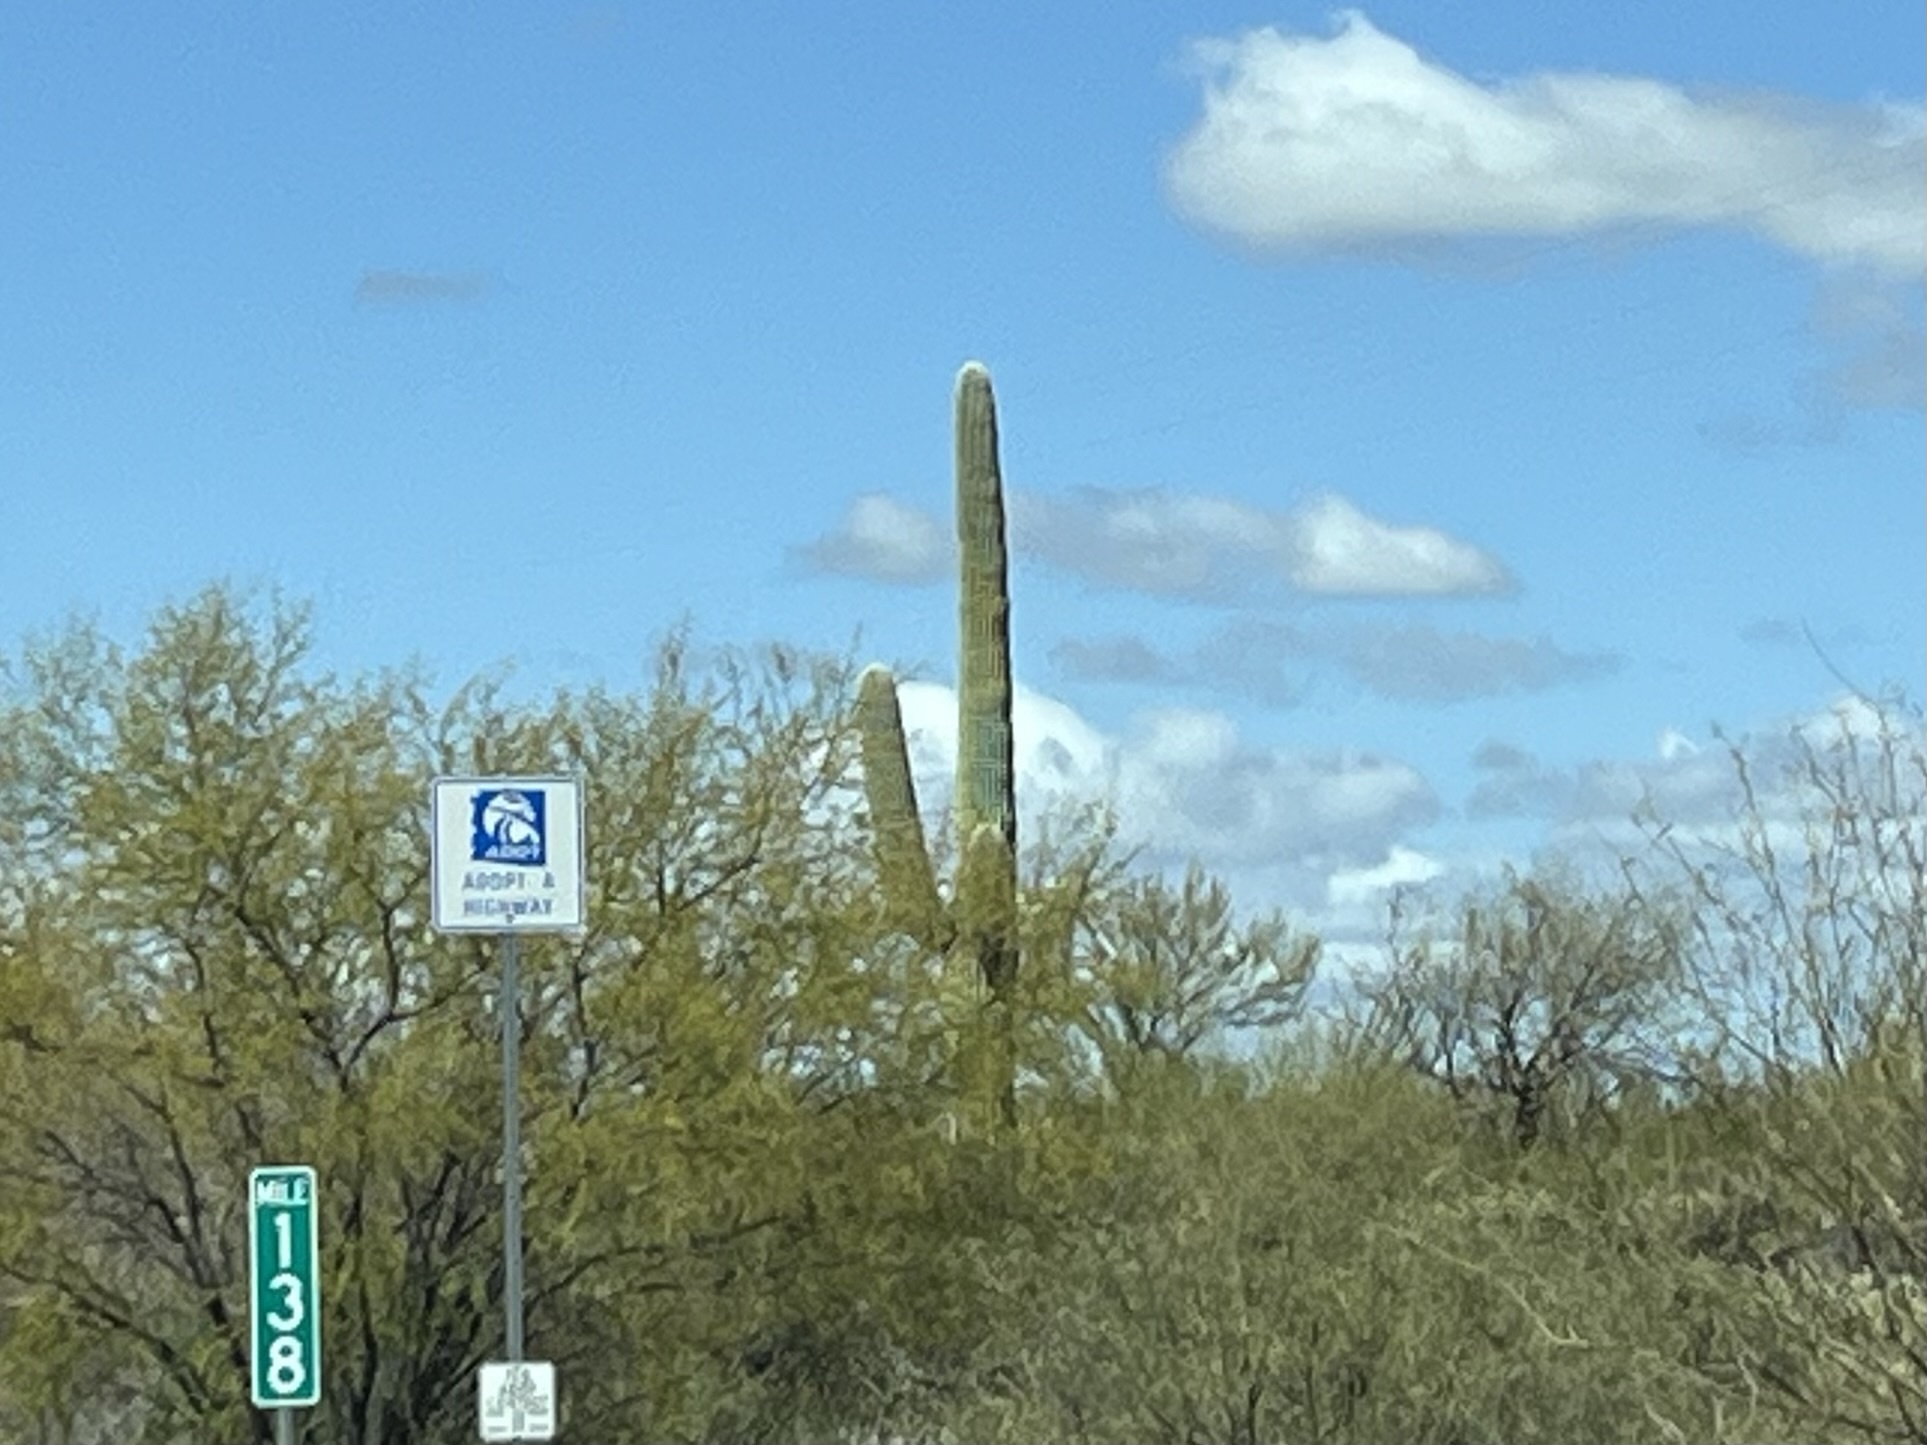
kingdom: Plantae
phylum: Tracheophyta
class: Magnoliopsida
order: Caryophyllales
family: Cactaceae
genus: Carnegiea
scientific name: Carnegiea gigantea
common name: Saguaro
